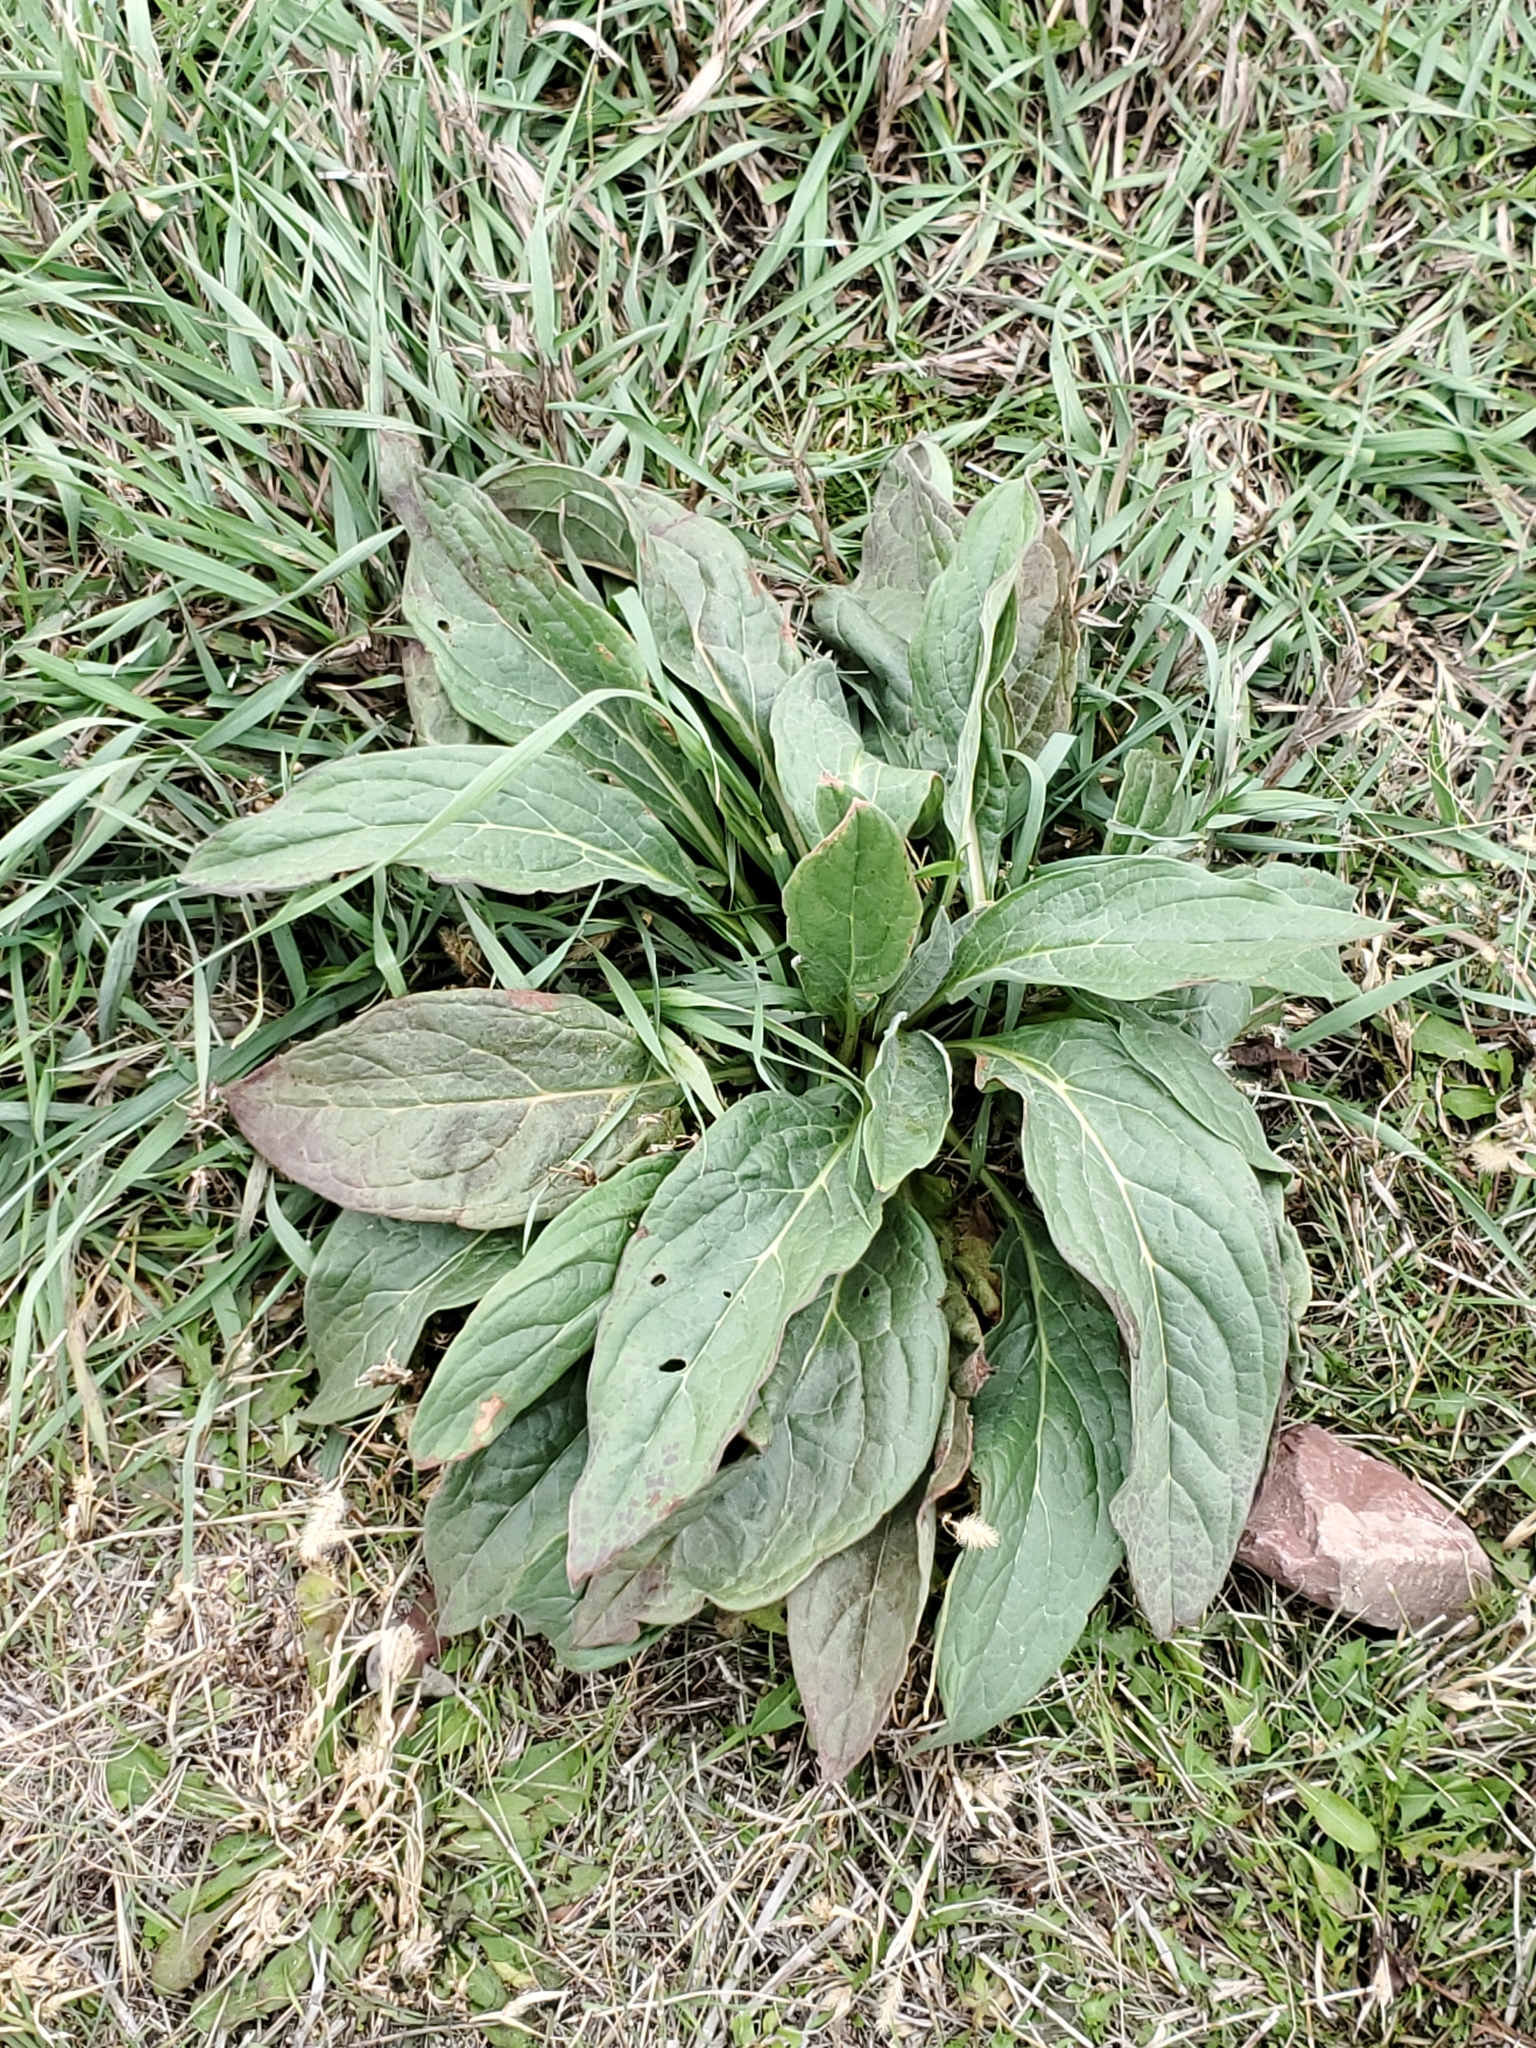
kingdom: Plantae
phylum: Tracheophyta
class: Magnoliopsida
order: Boraginales
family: Boraginaceae
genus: Cynoglossum
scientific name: Cynoglossum officinale
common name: Hound's-tongue
